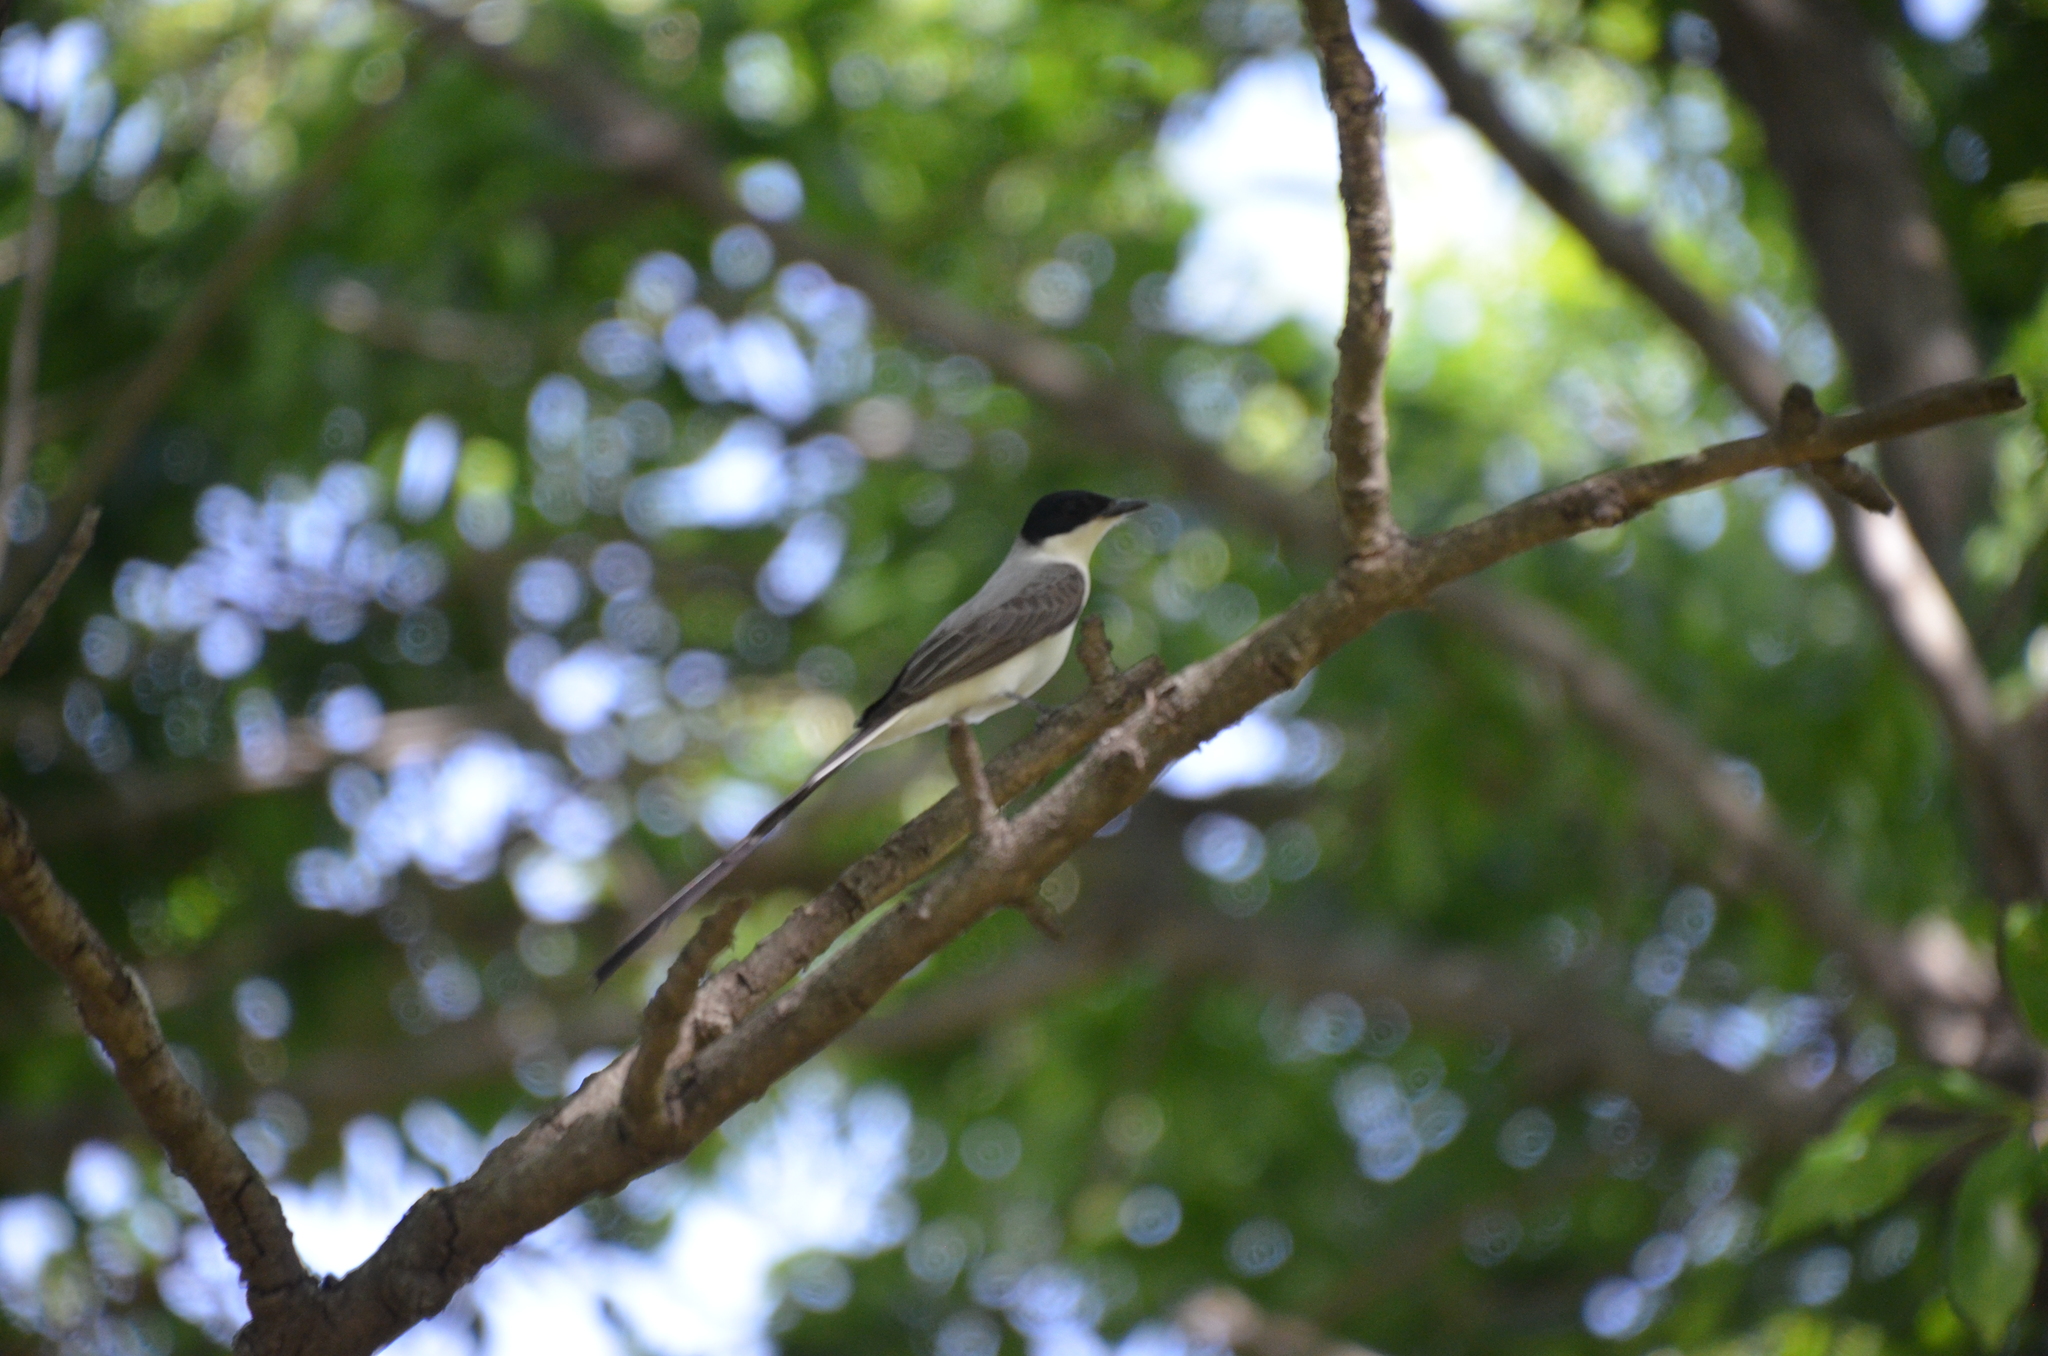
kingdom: Animalia
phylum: Chordata
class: Aves
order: Passeriformes
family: Tyrannidae
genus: Tyrannus
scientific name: Tyrannus savana
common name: Fork-tailed flycatcher
